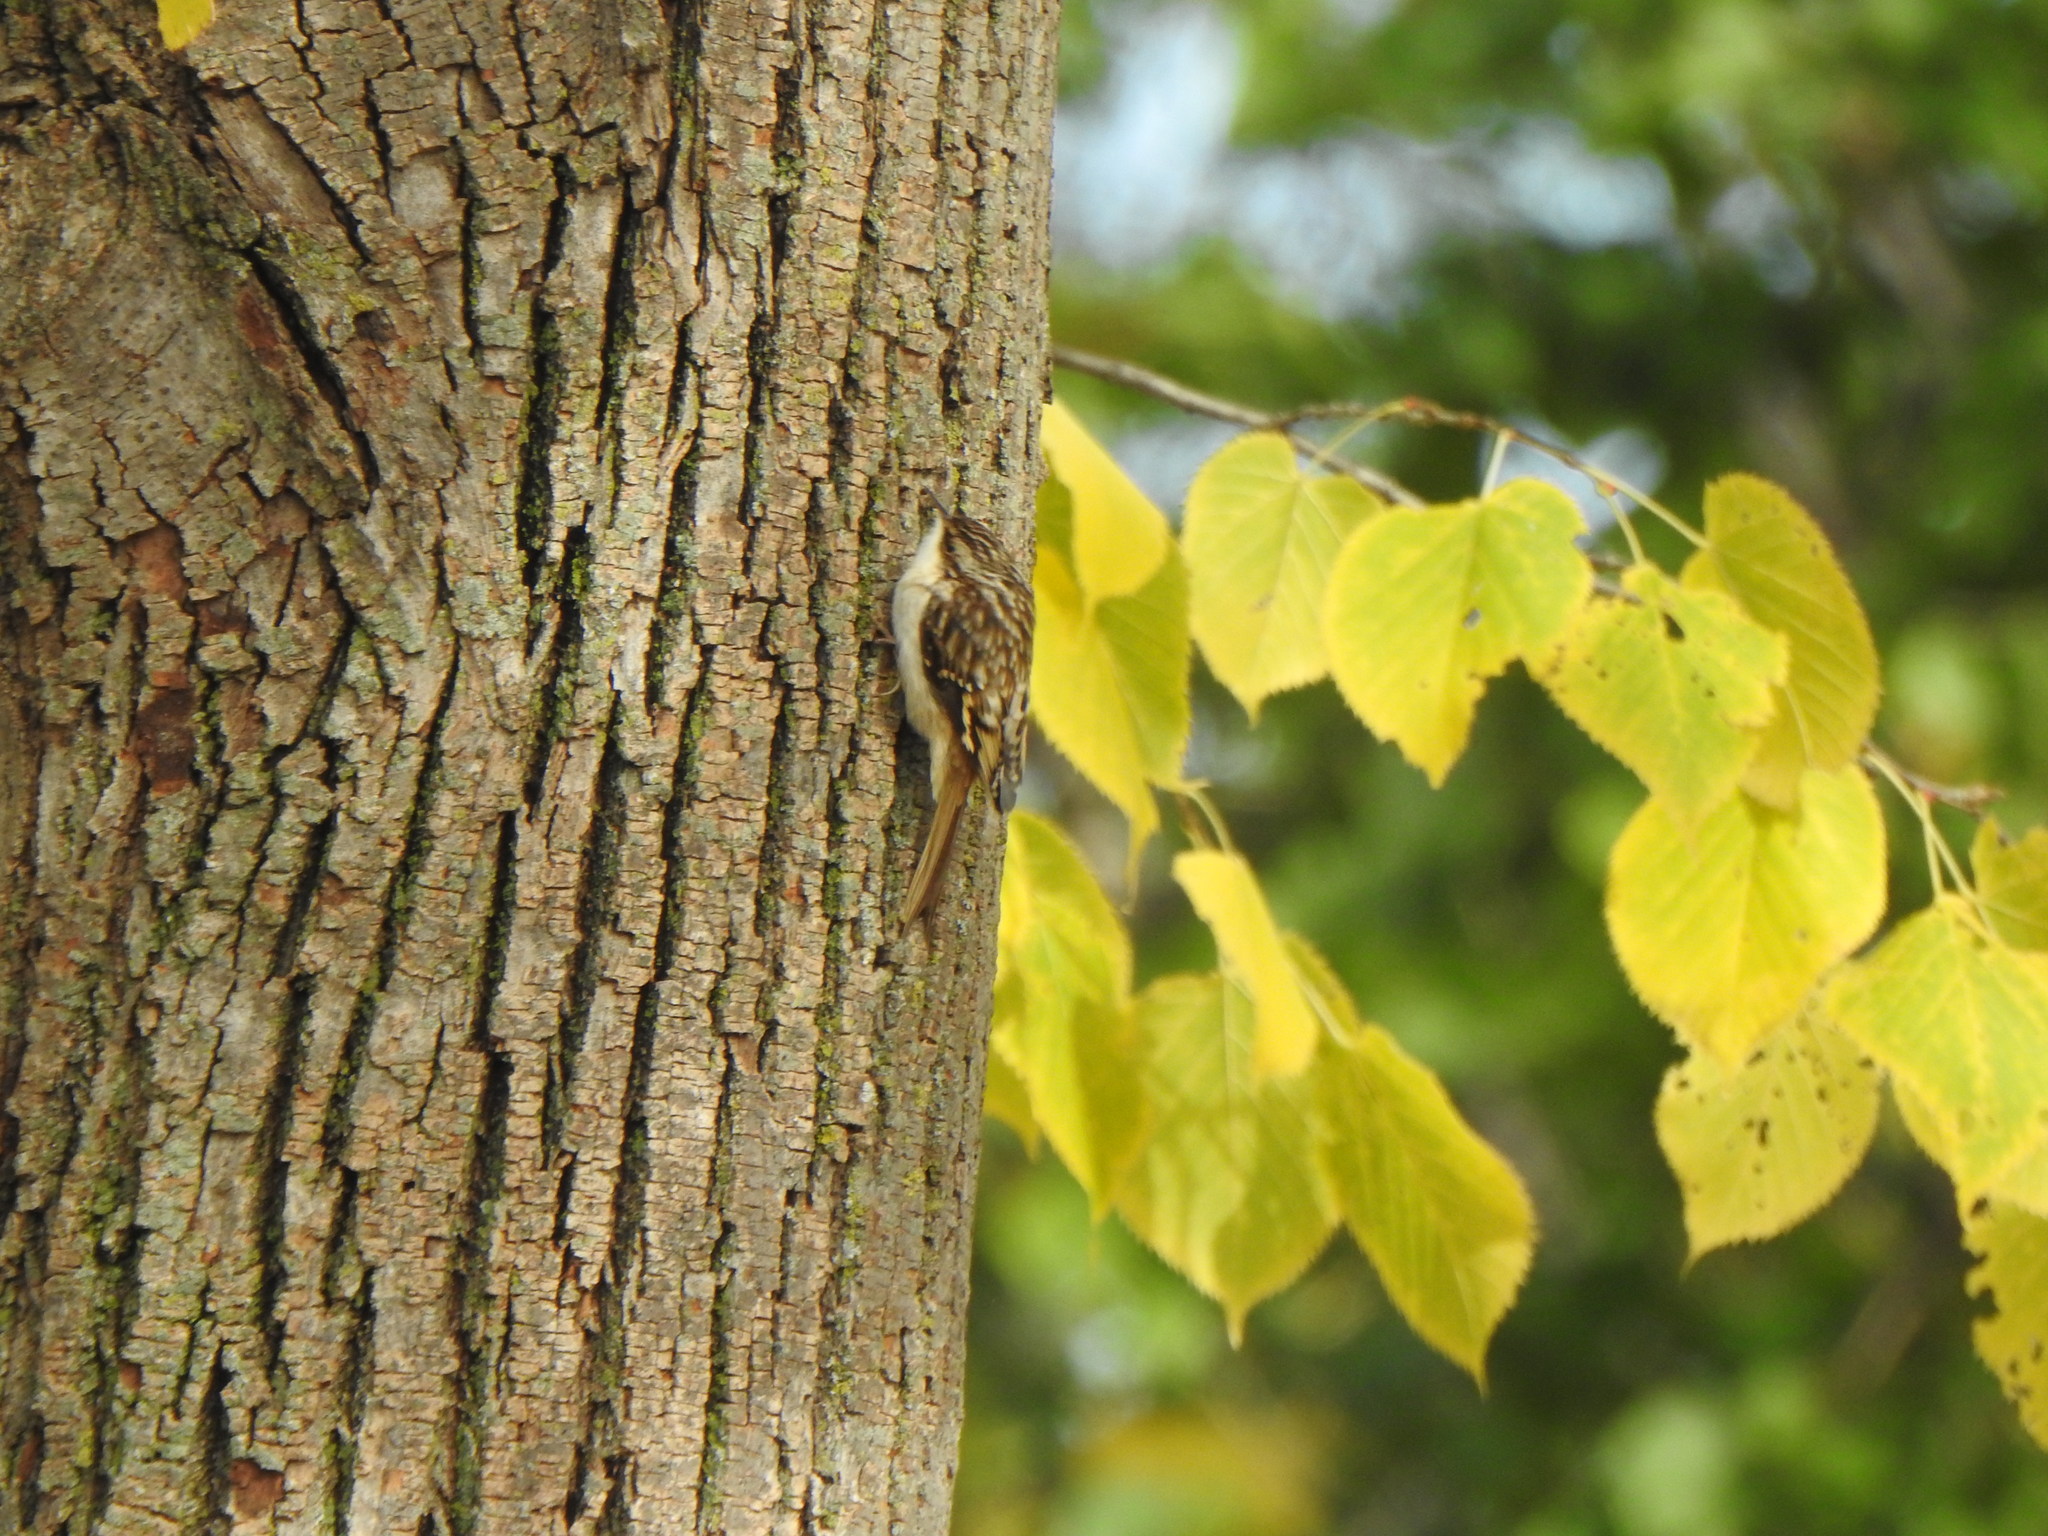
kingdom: Animalia
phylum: Chordata
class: Aves
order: Passeriformes
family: Certhiidae
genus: Certhia
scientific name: Certhia americana
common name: Brown creeper
